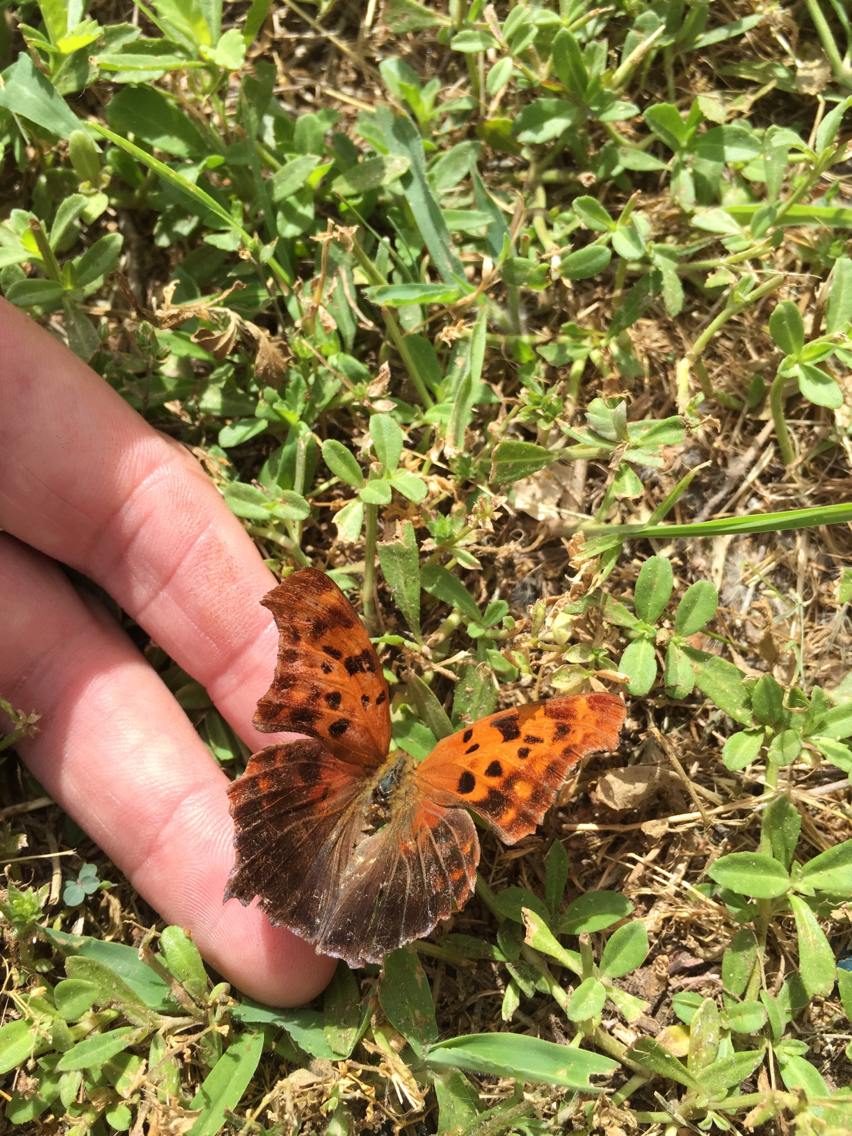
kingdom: Animalia
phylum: Arthropoda
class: Insecta
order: Lepidoptera
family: Nymphalidae
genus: Polygonia
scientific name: Polygonia interrogationis
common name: Question mark
